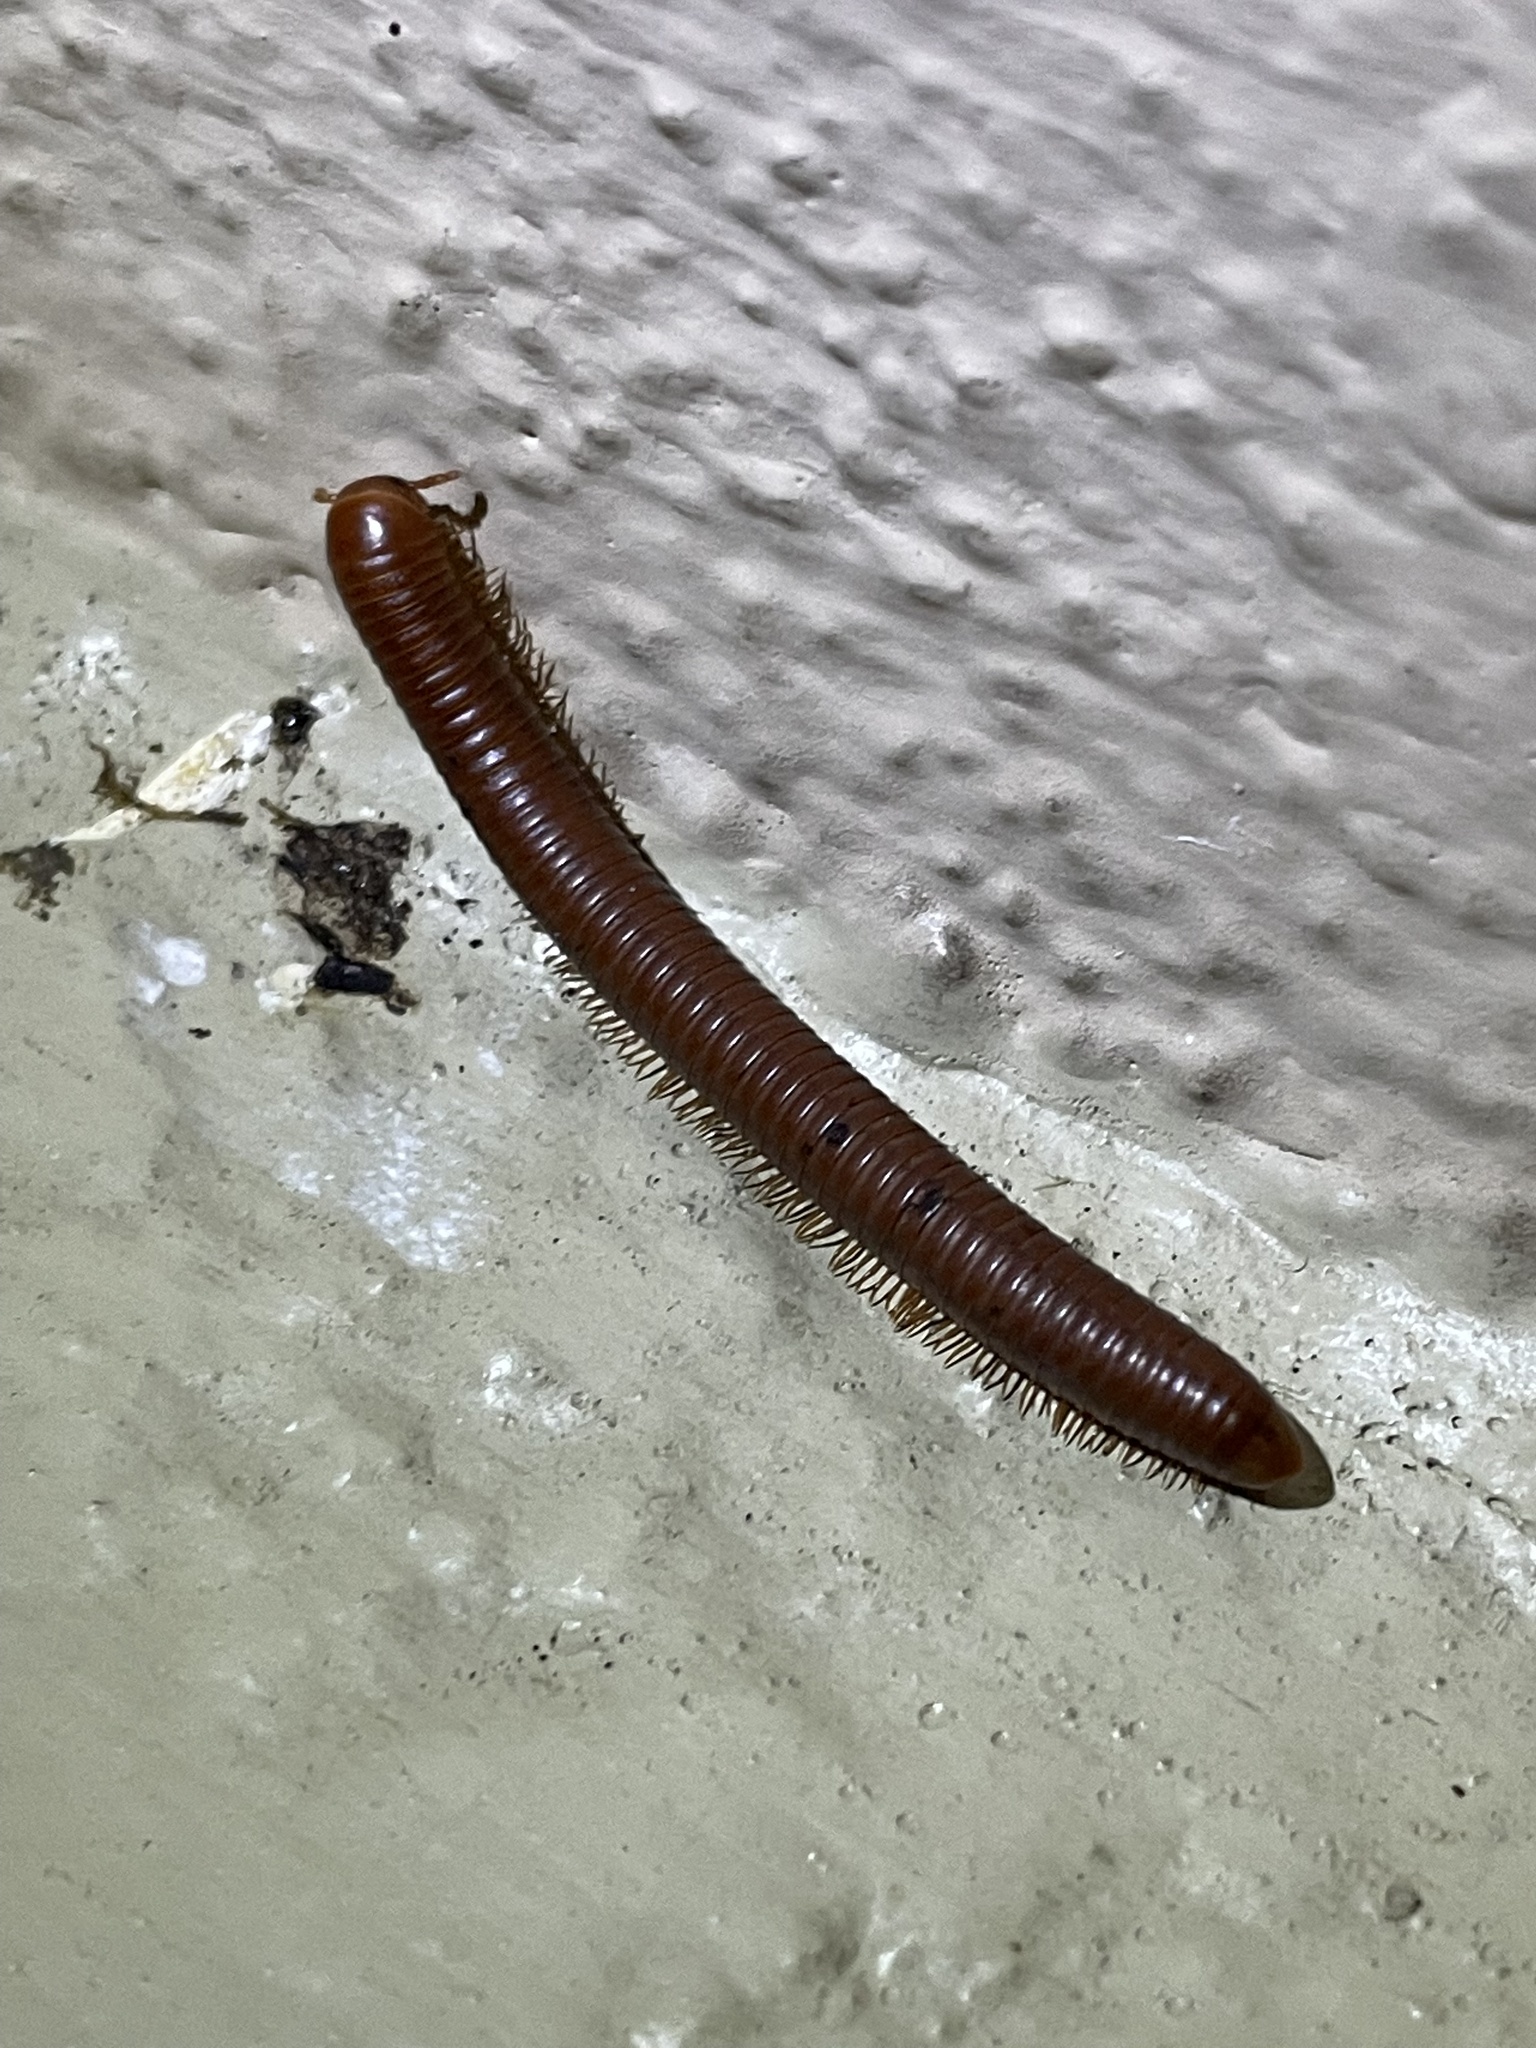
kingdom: Animalia
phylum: Arthropoda
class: Diplopoda
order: Spirobolida
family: Pachybolidae
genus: Trigoniulus
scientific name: Trigoniulus corallinus
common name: Millipede
